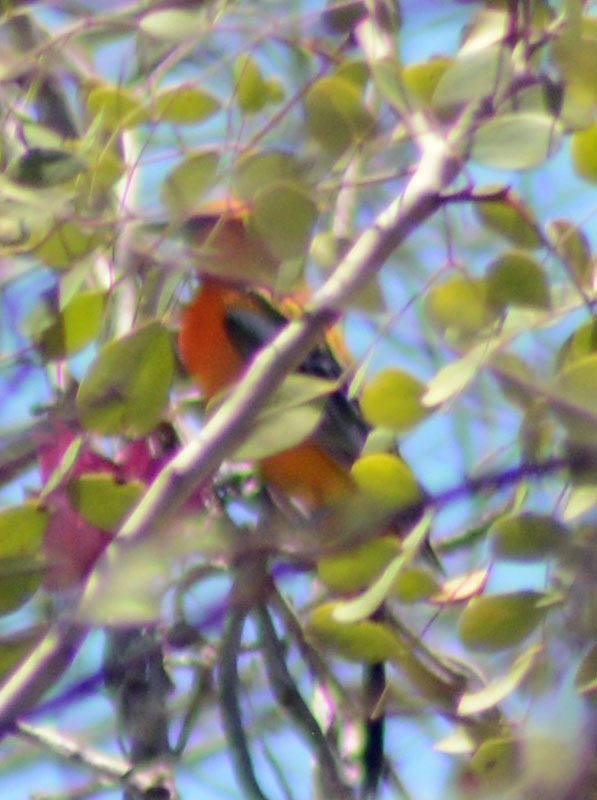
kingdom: Animalia
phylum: Chordata
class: Aves
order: Passeriformes
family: Icteridae
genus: Icterus
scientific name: Icterus pustulatus
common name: Streak-backed oriole
